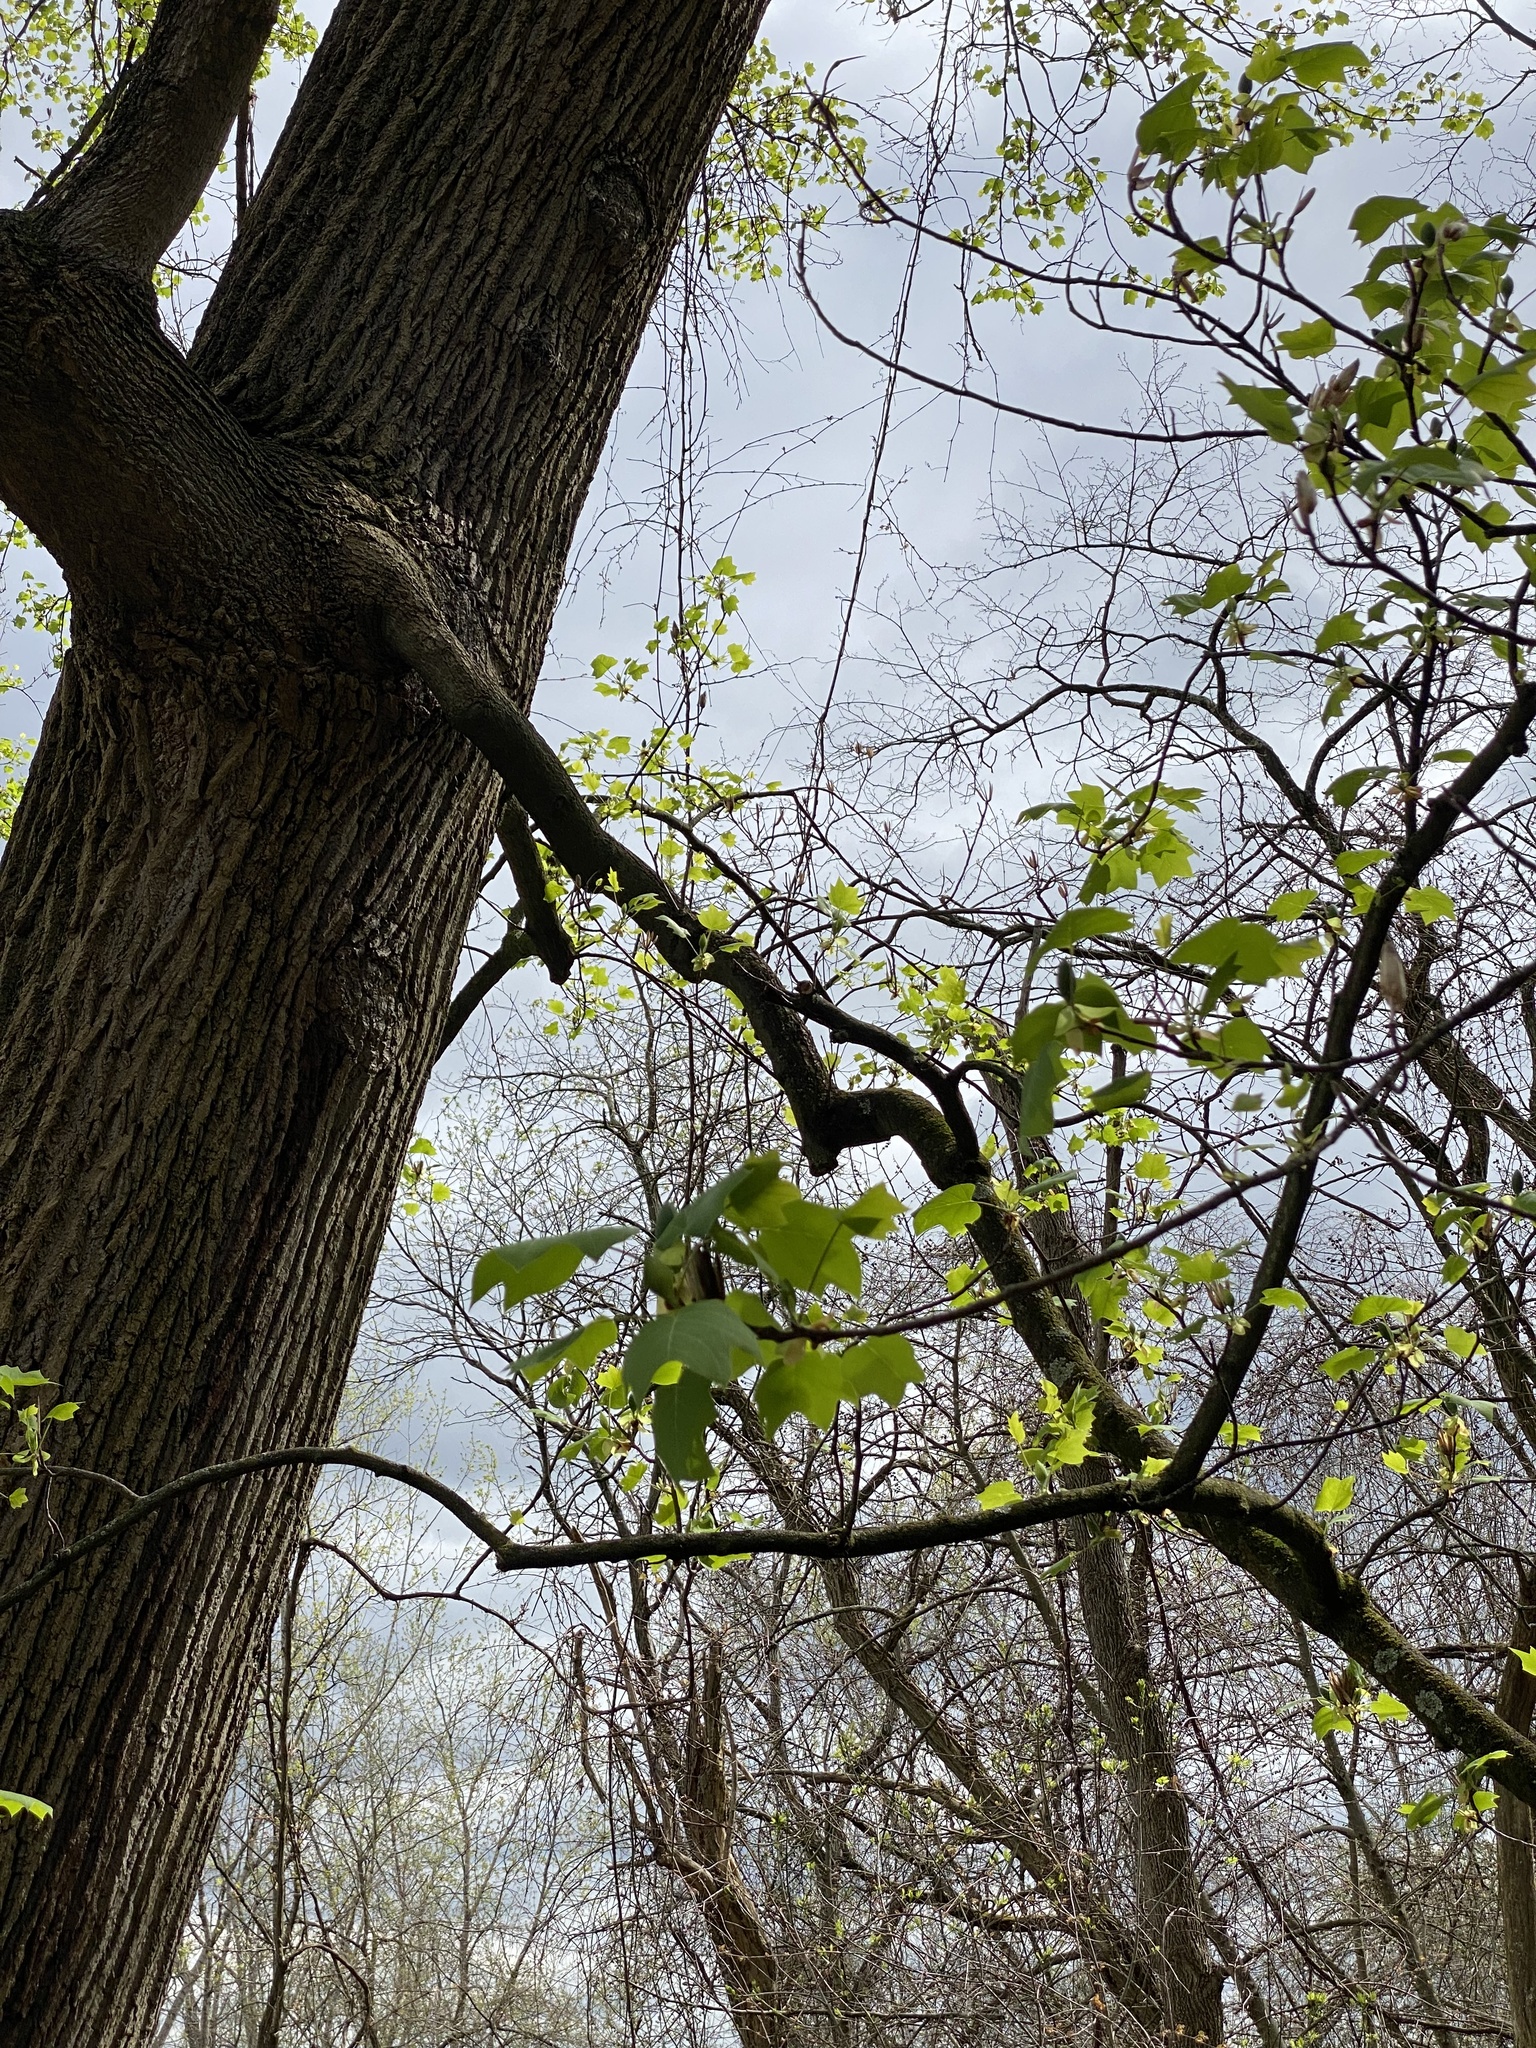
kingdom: Plantae
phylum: Tracheophyta
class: Magnoliopsida
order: Magnoliales
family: Magnoliaceae
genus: Liriodendron
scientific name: Liriodendron tulipifera
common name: Tulip tree
